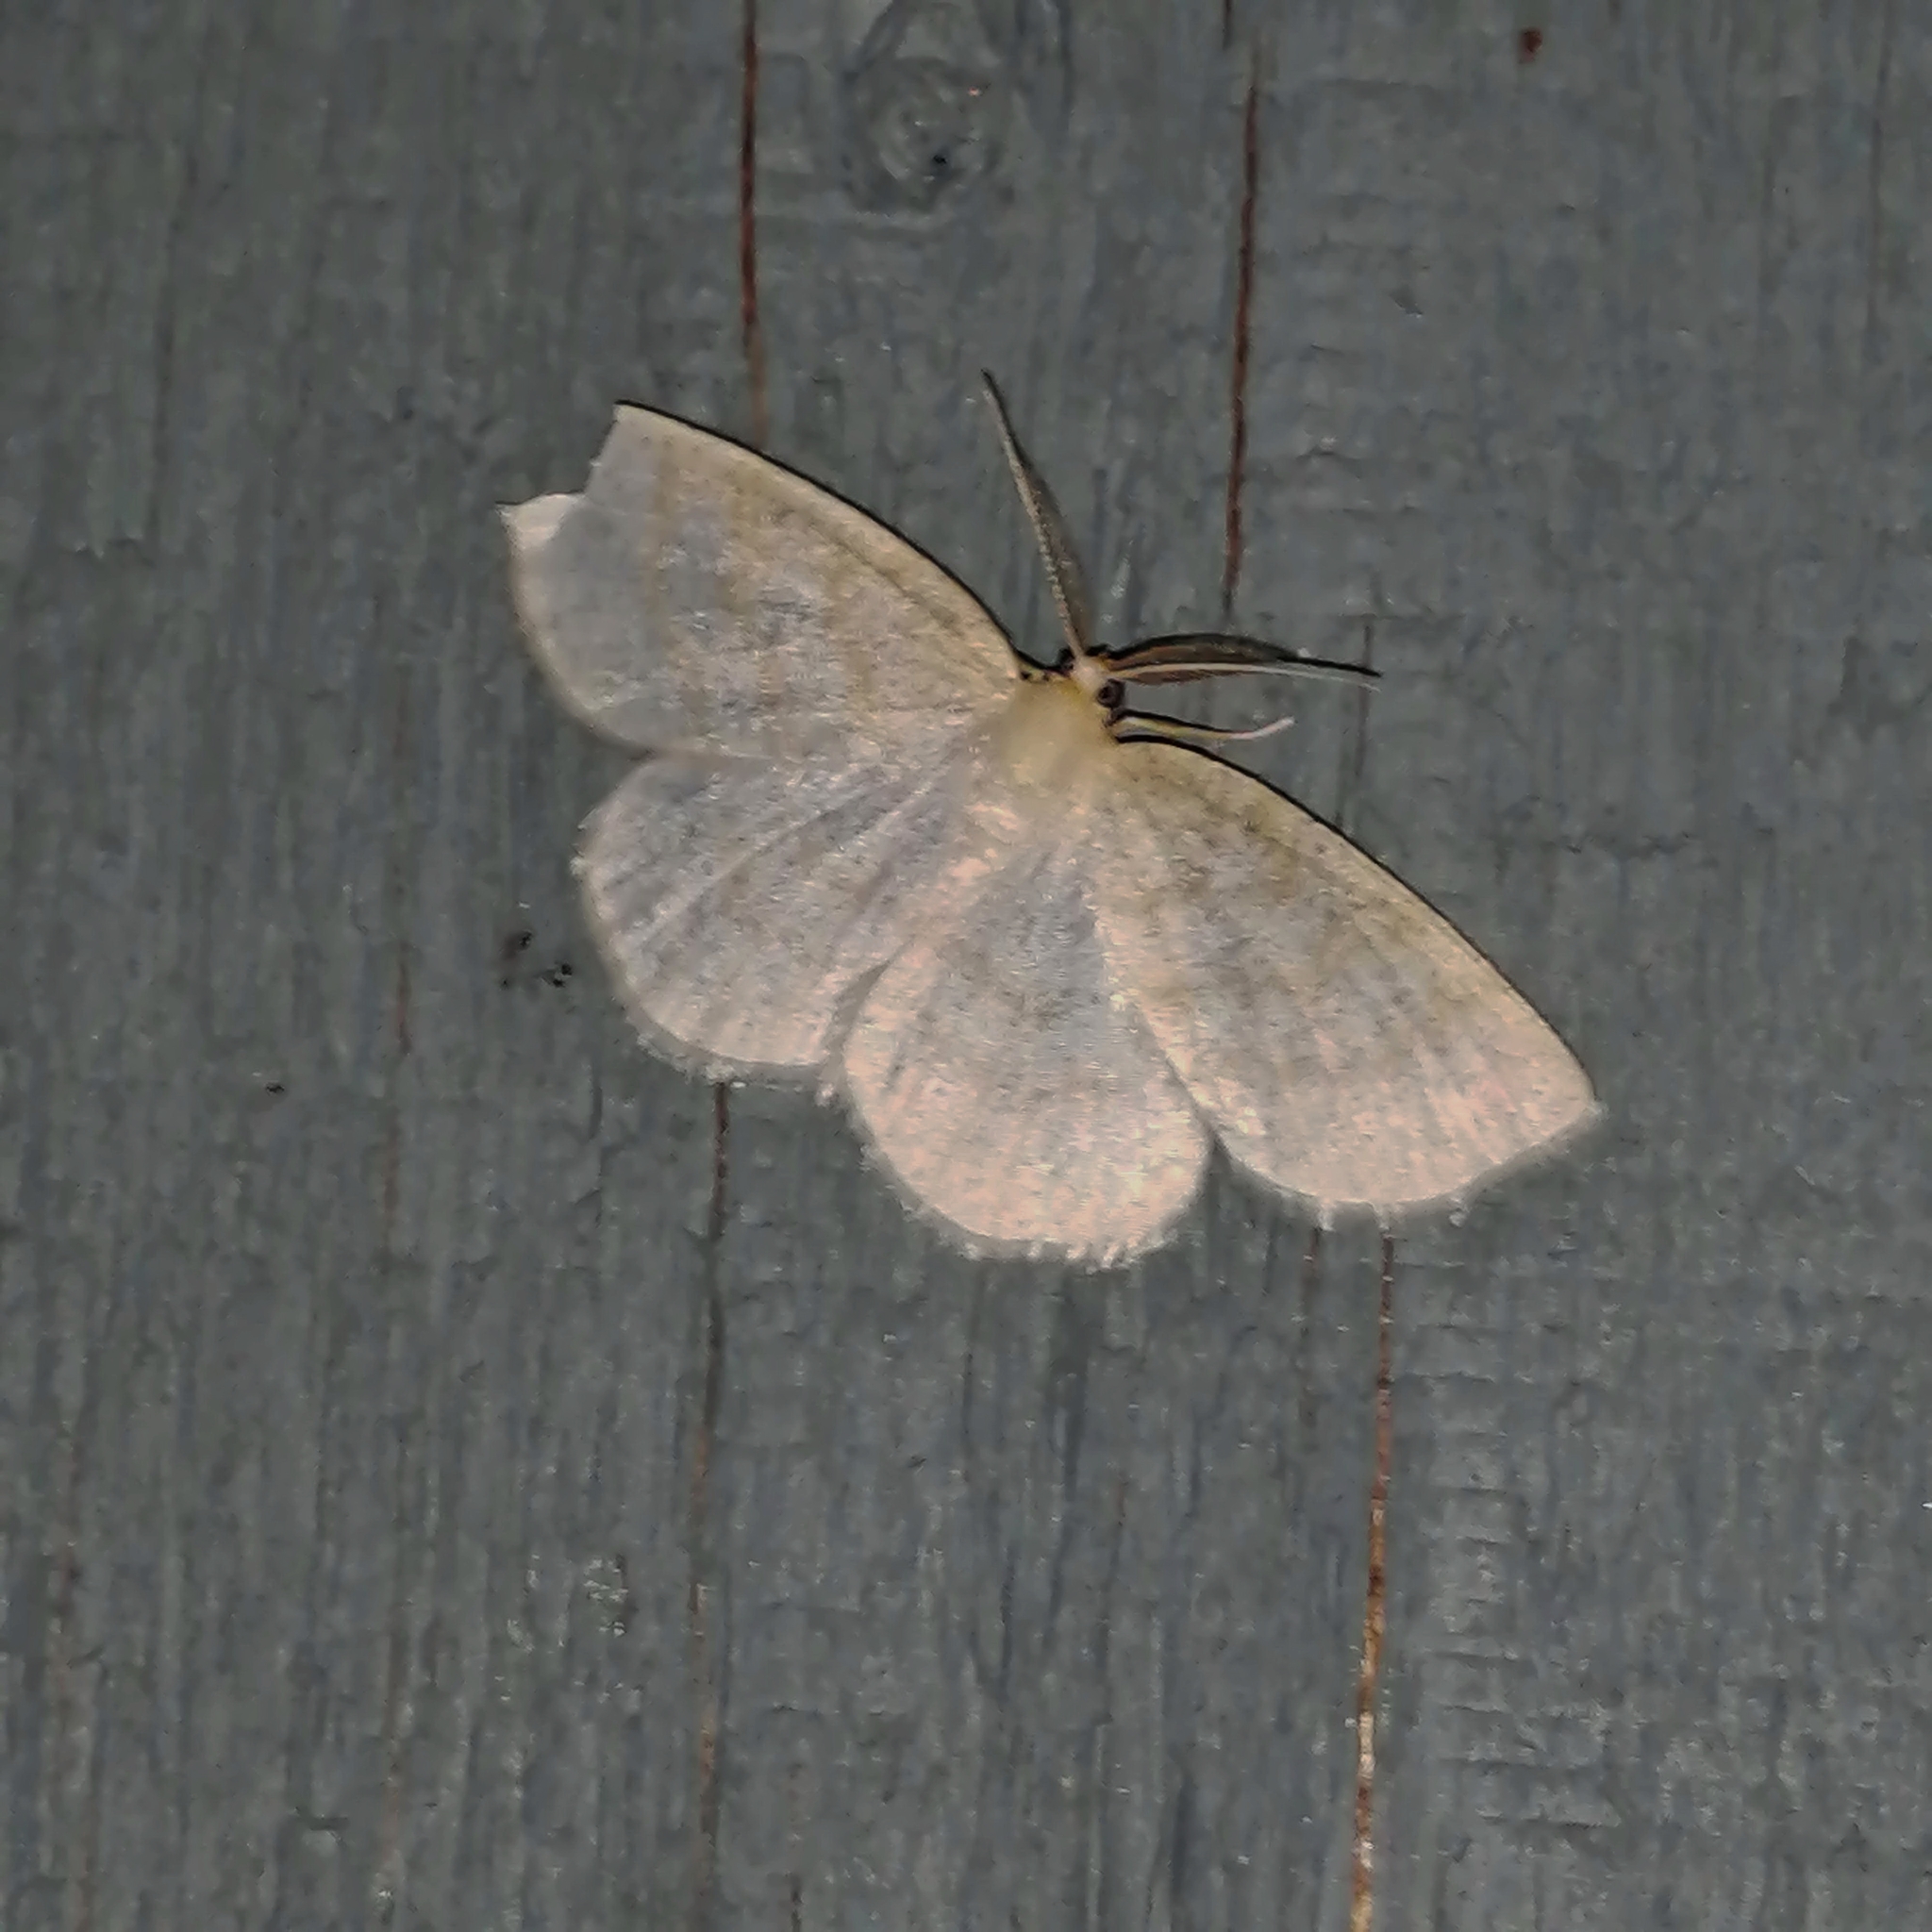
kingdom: Animalia
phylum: Arthropoda
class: Insecta
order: Lepidoptera
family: Geometridae
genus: Cabera
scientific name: Cabera erythemaria
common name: Yellow-dusted cream moth
